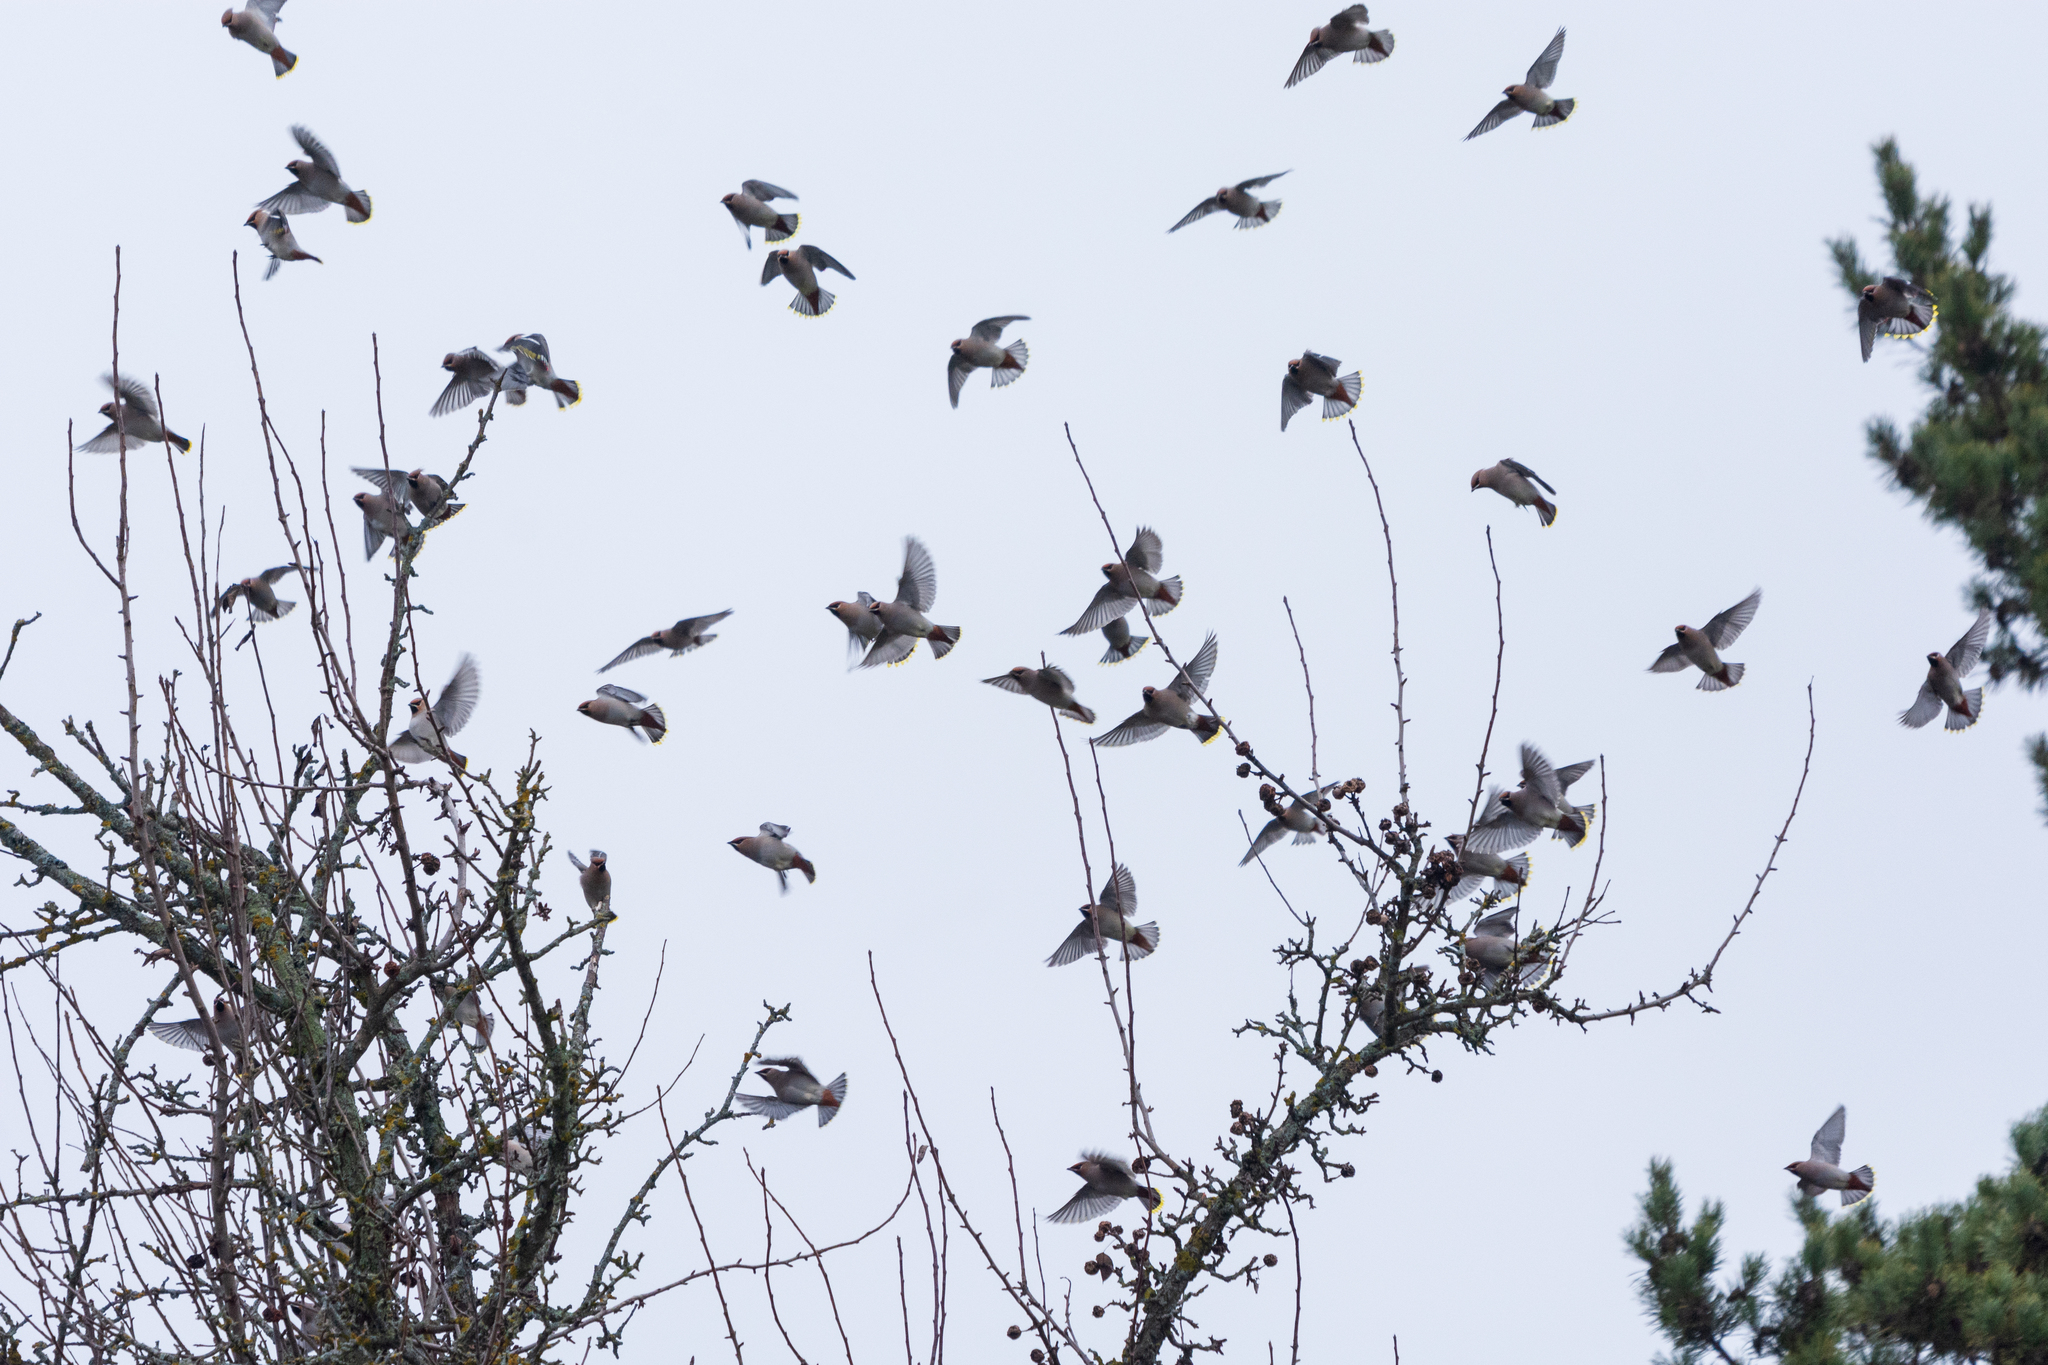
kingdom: Animalia
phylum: Chordata
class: Aves
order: Passeriformes
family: Bombycillidae
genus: Bombycilla
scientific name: Bombycilla garrulus
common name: Bohemian waxwing
